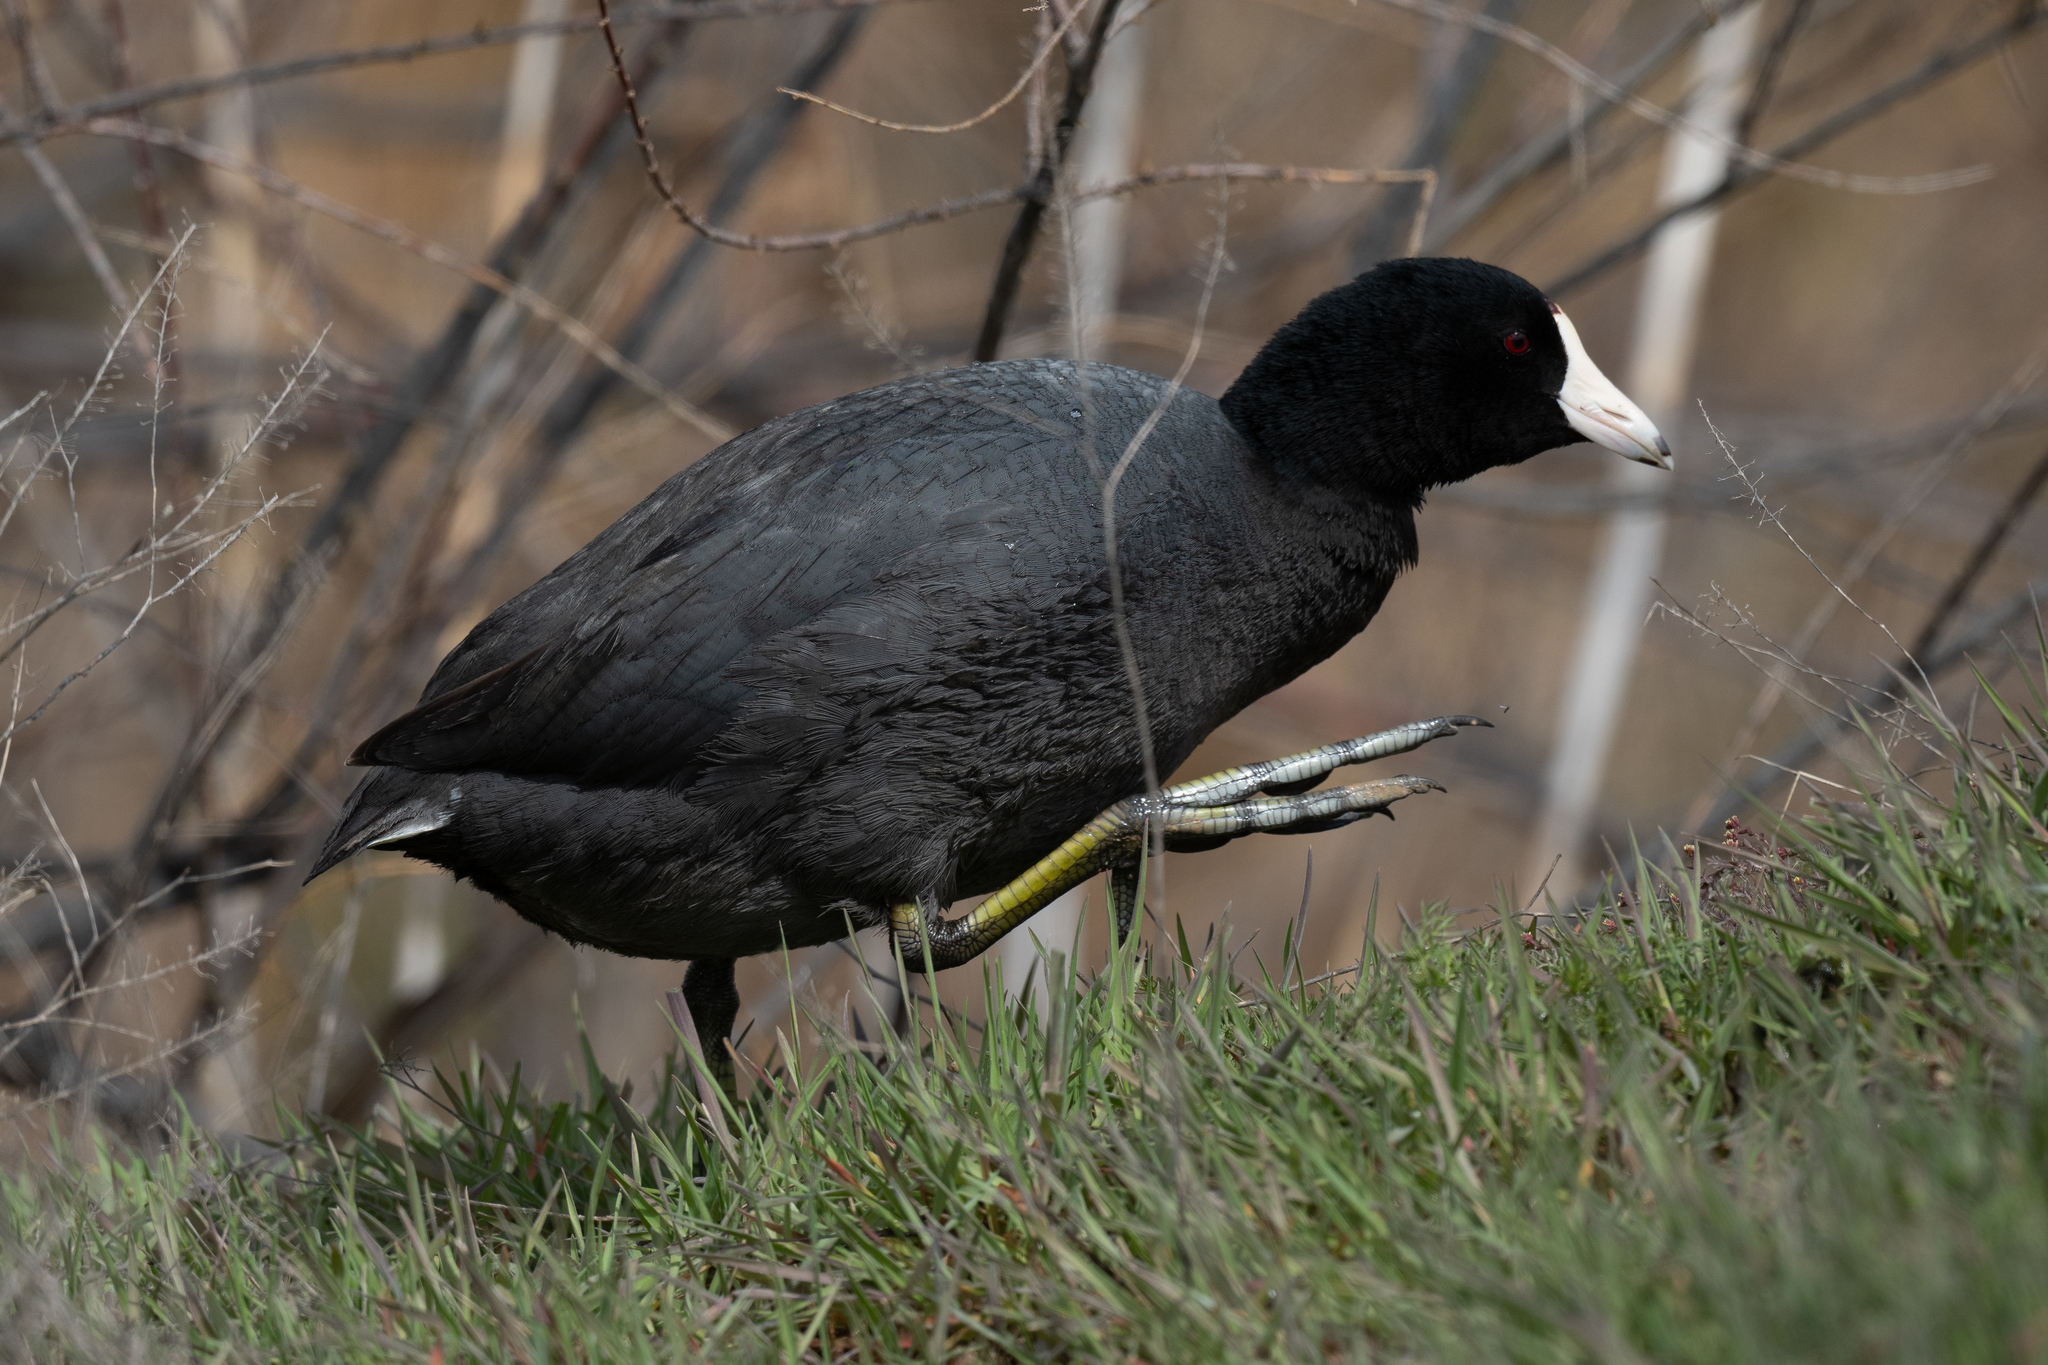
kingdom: Animalia
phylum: Chordata
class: Aves
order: Gruiformes
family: Rallidae
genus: Fulica
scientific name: Fulica americana
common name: American coot
